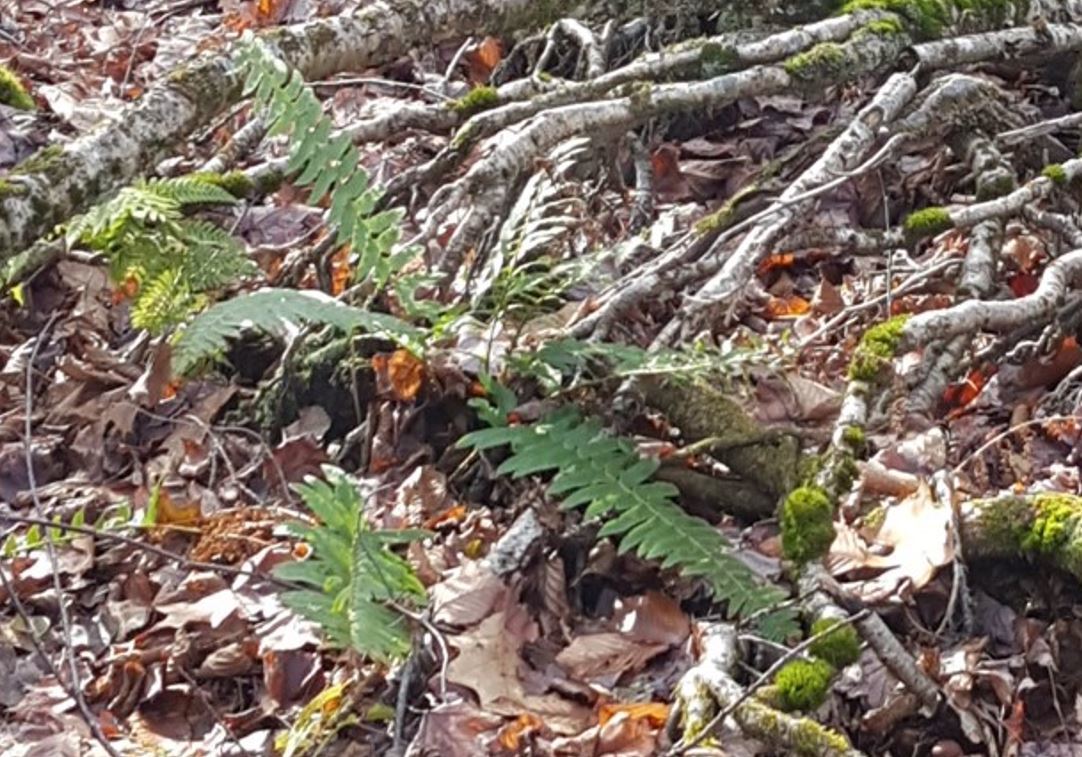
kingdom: Plantae
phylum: Tracheophyta
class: Polypodiopsida
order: Polypodiales
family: Dryopteridaceae
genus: Polystichum
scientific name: Polystichum acrostichoides
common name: Christmas fern
